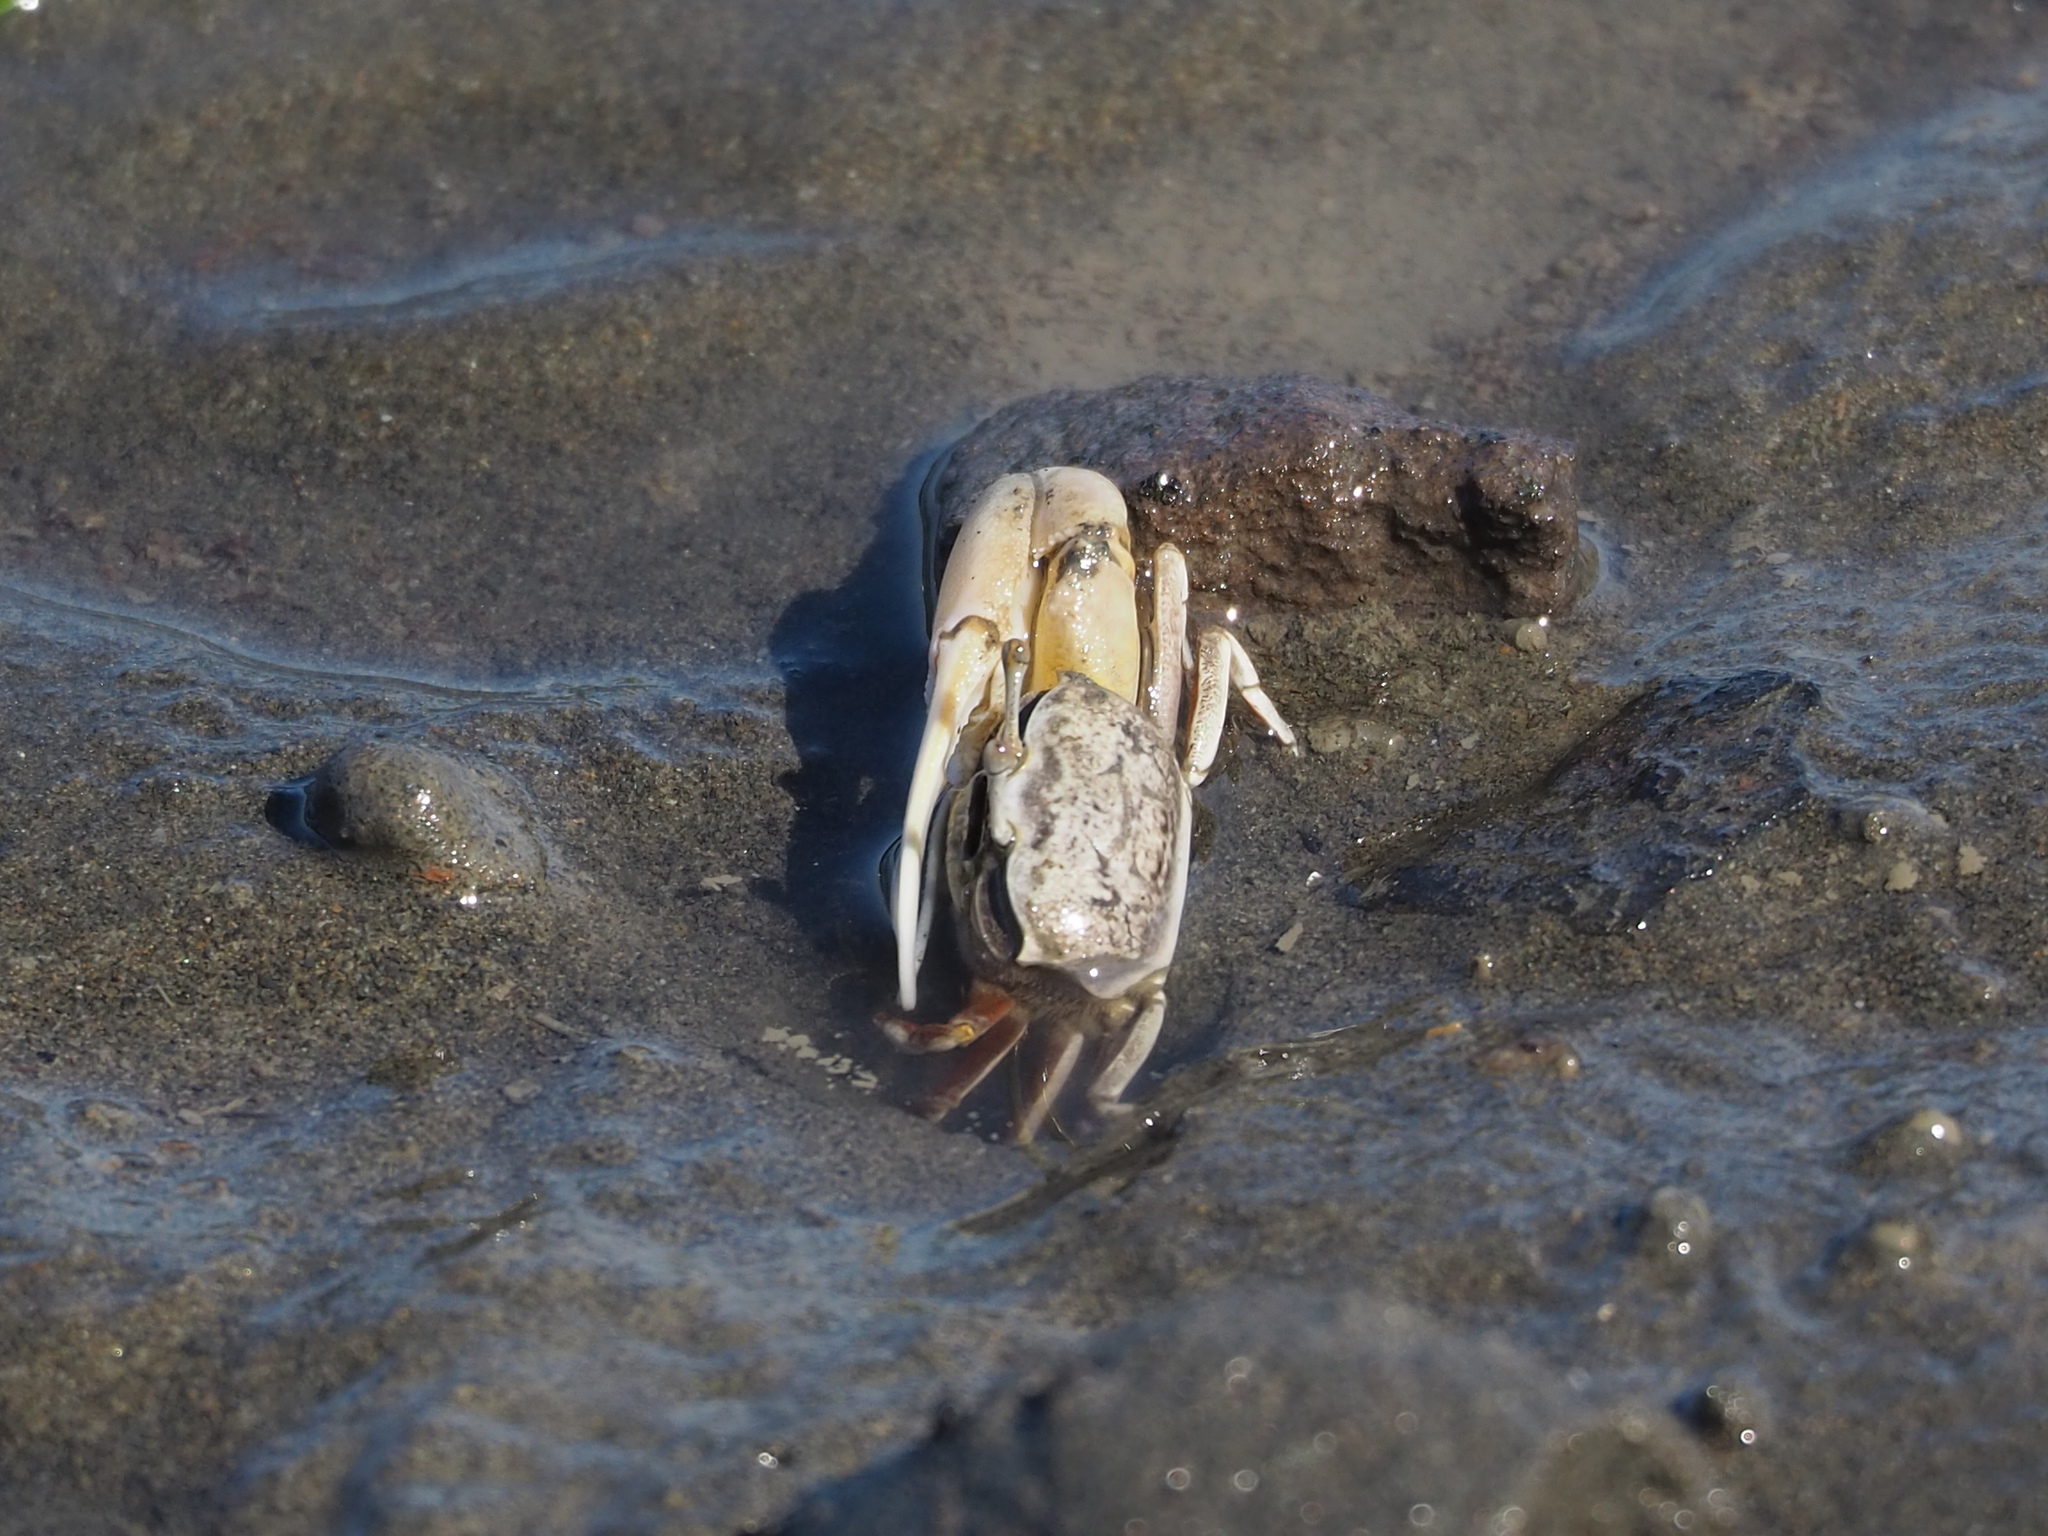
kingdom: Animalia
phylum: Arthropoda
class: Malacostraca
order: Decapoda
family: Ocypodidae
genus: Austruca
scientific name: Austruca lactea
